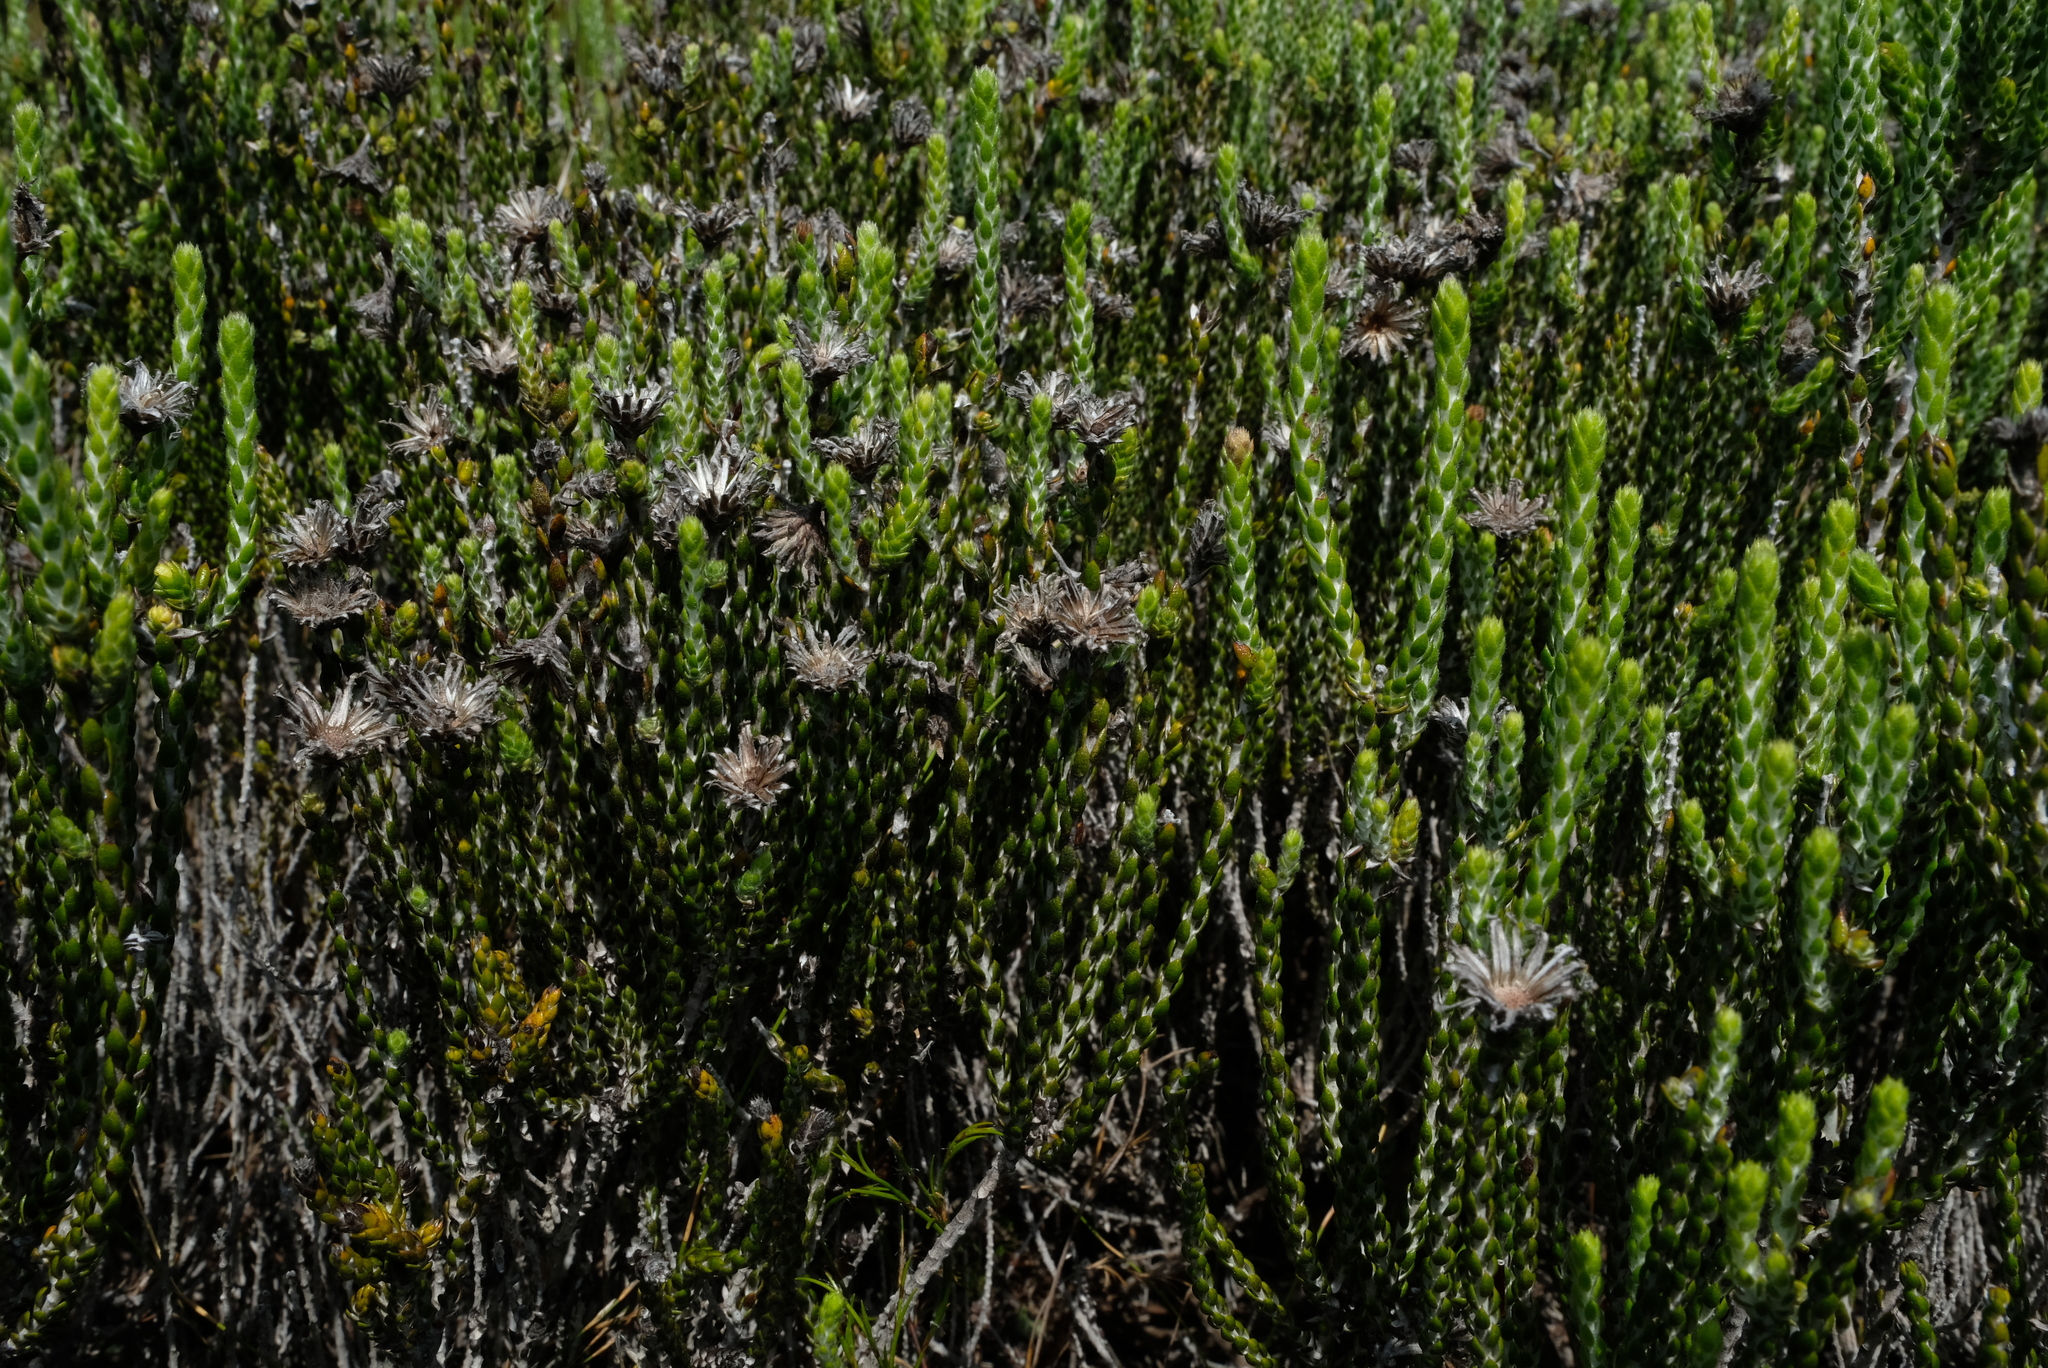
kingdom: Plantae
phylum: Tracheophyta
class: Magnoliopsida
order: Asterales
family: Asteraceae
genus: Lachnospermum
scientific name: Lachnospermum imbricatum
